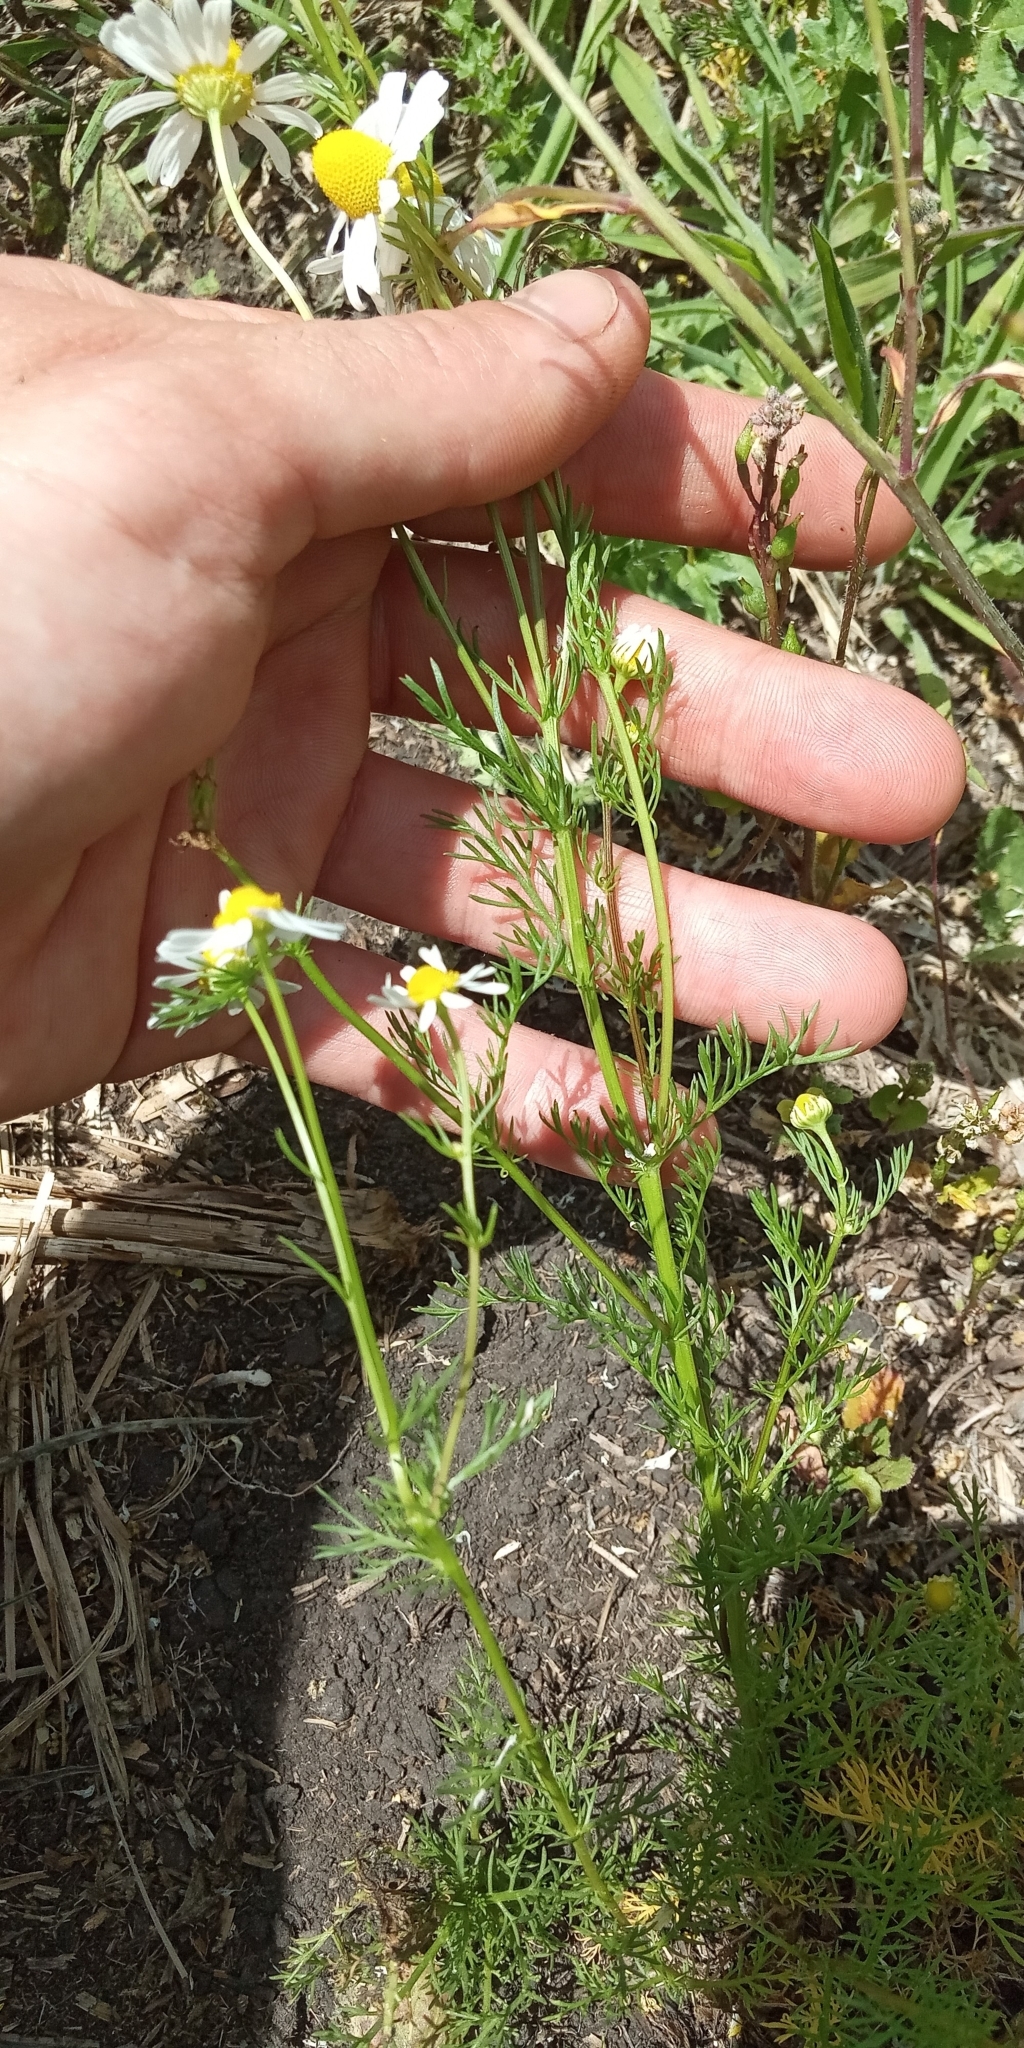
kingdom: Plantae
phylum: Tracheophyta
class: Magnoliopsida
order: Asterales
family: Asteraceae
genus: Matricaria
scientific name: Matricaria chamomilla
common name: Scented mayweed
